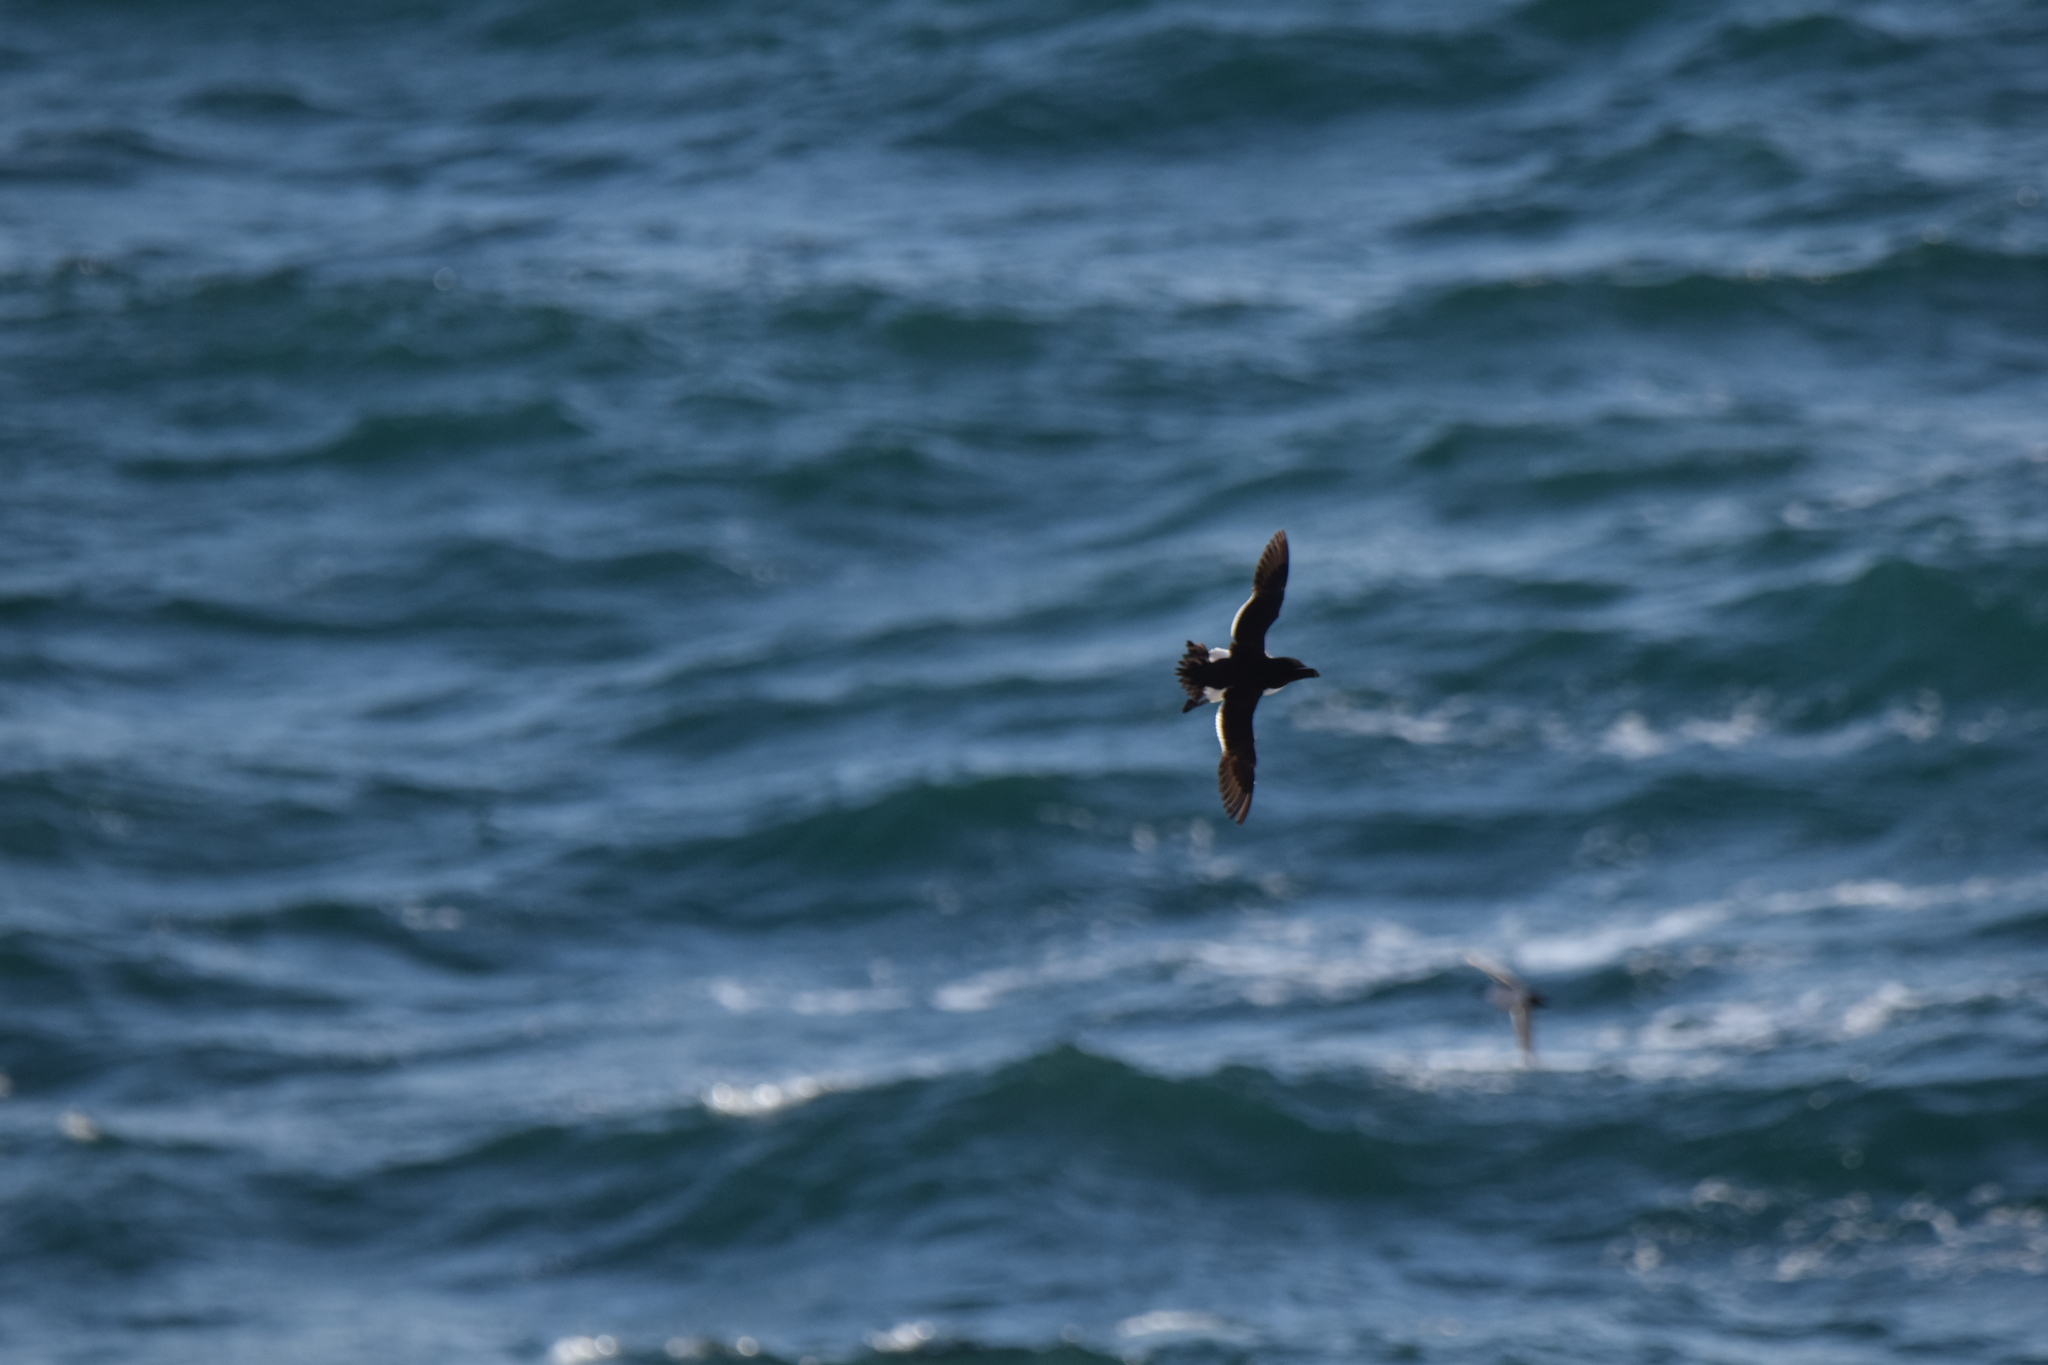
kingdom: Animalia
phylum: Chordata
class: Aves
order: Charadriiformes
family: Alcidae
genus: Alca
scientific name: Alca torda
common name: Razorbill
